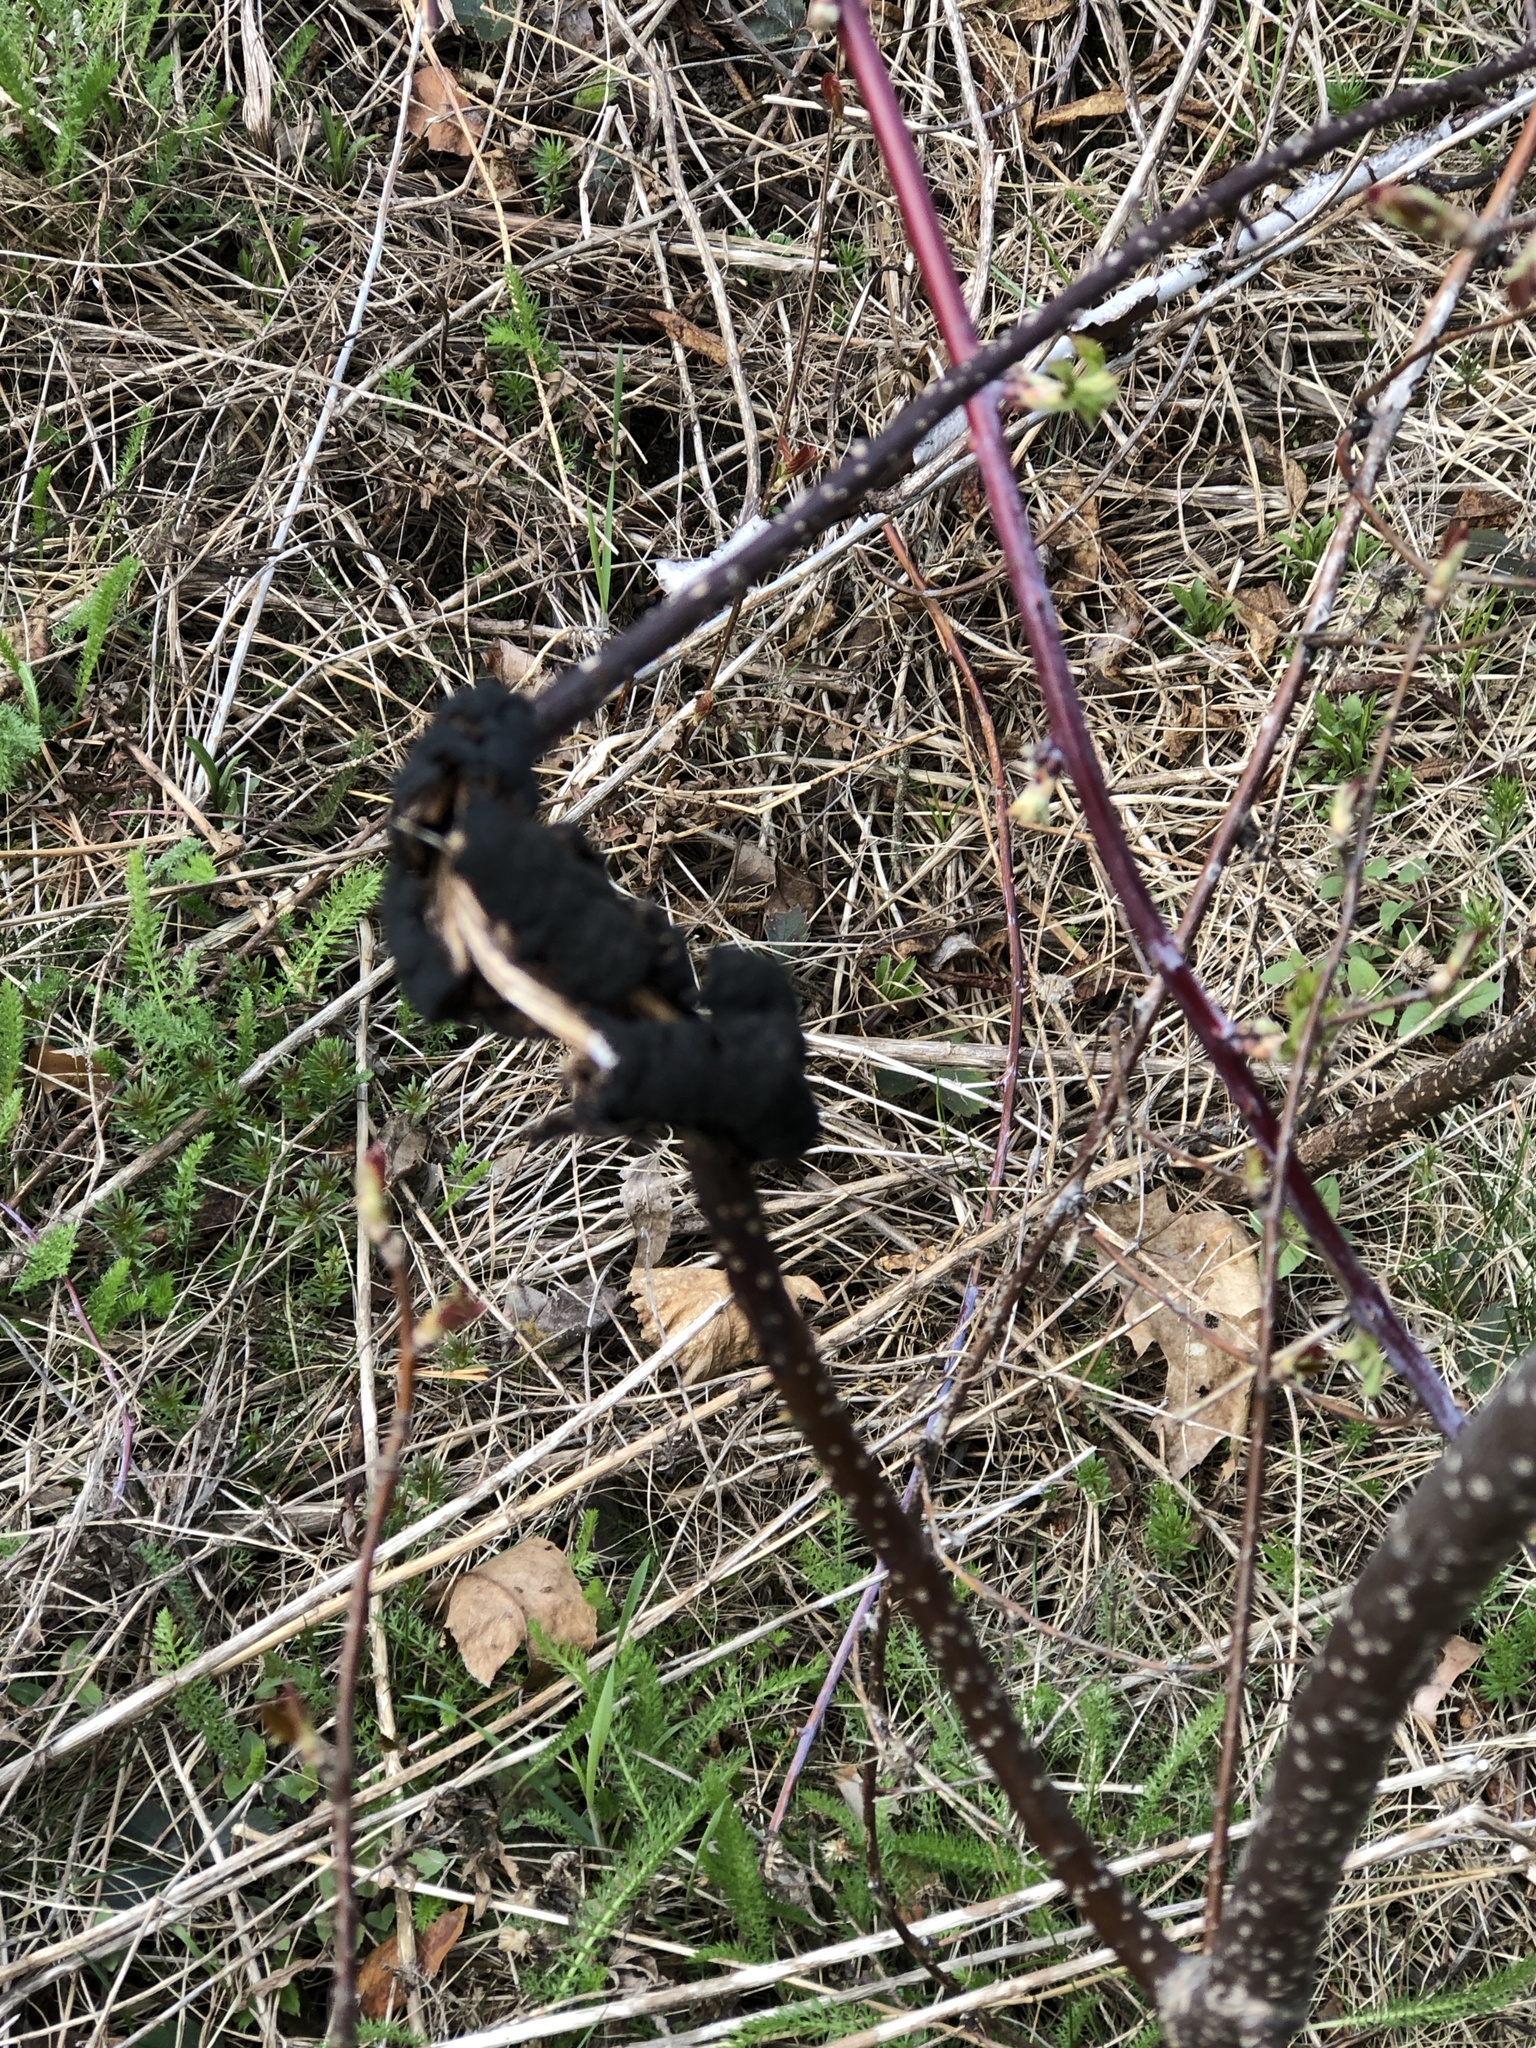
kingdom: Fungi
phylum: Ascomycota
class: Dothideomycetes
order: Venturiales
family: Venturiaceae
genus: Apiosporina
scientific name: Apiosporina morbosa
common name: Black knot
